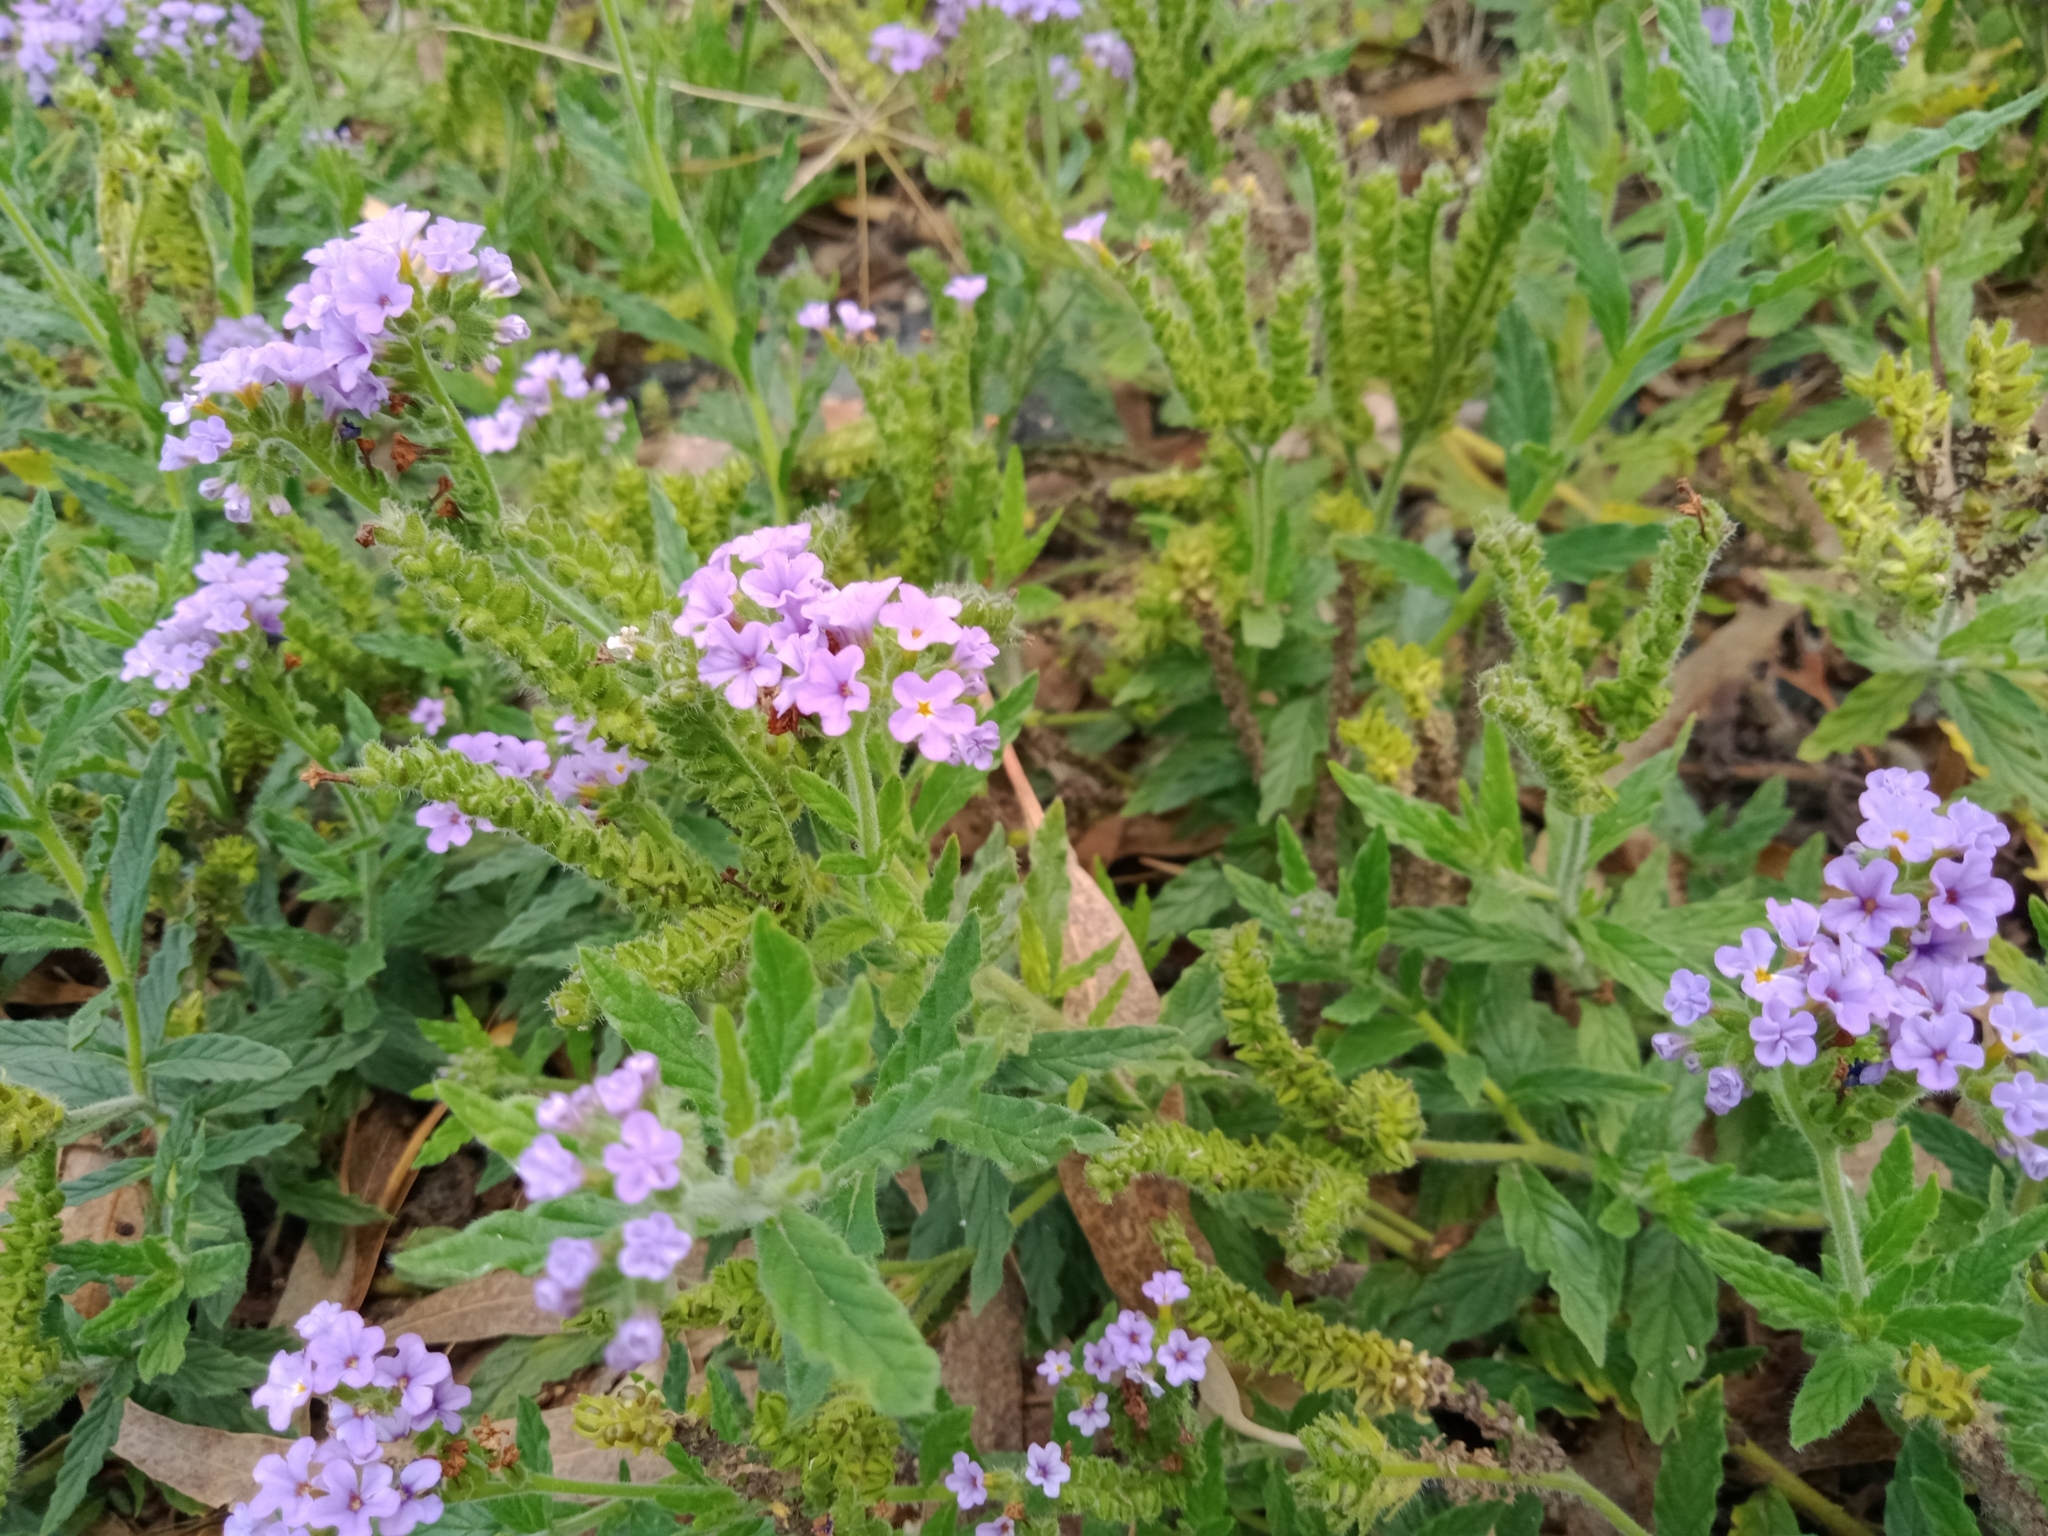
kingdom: Plantae
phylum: Tracheophyta
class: Magnoliopsida
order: Boraginales
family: Heliotropiaceae
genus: Heliotropium
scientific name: Heliotropium amplexicaule
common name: Clasping heliotrope
